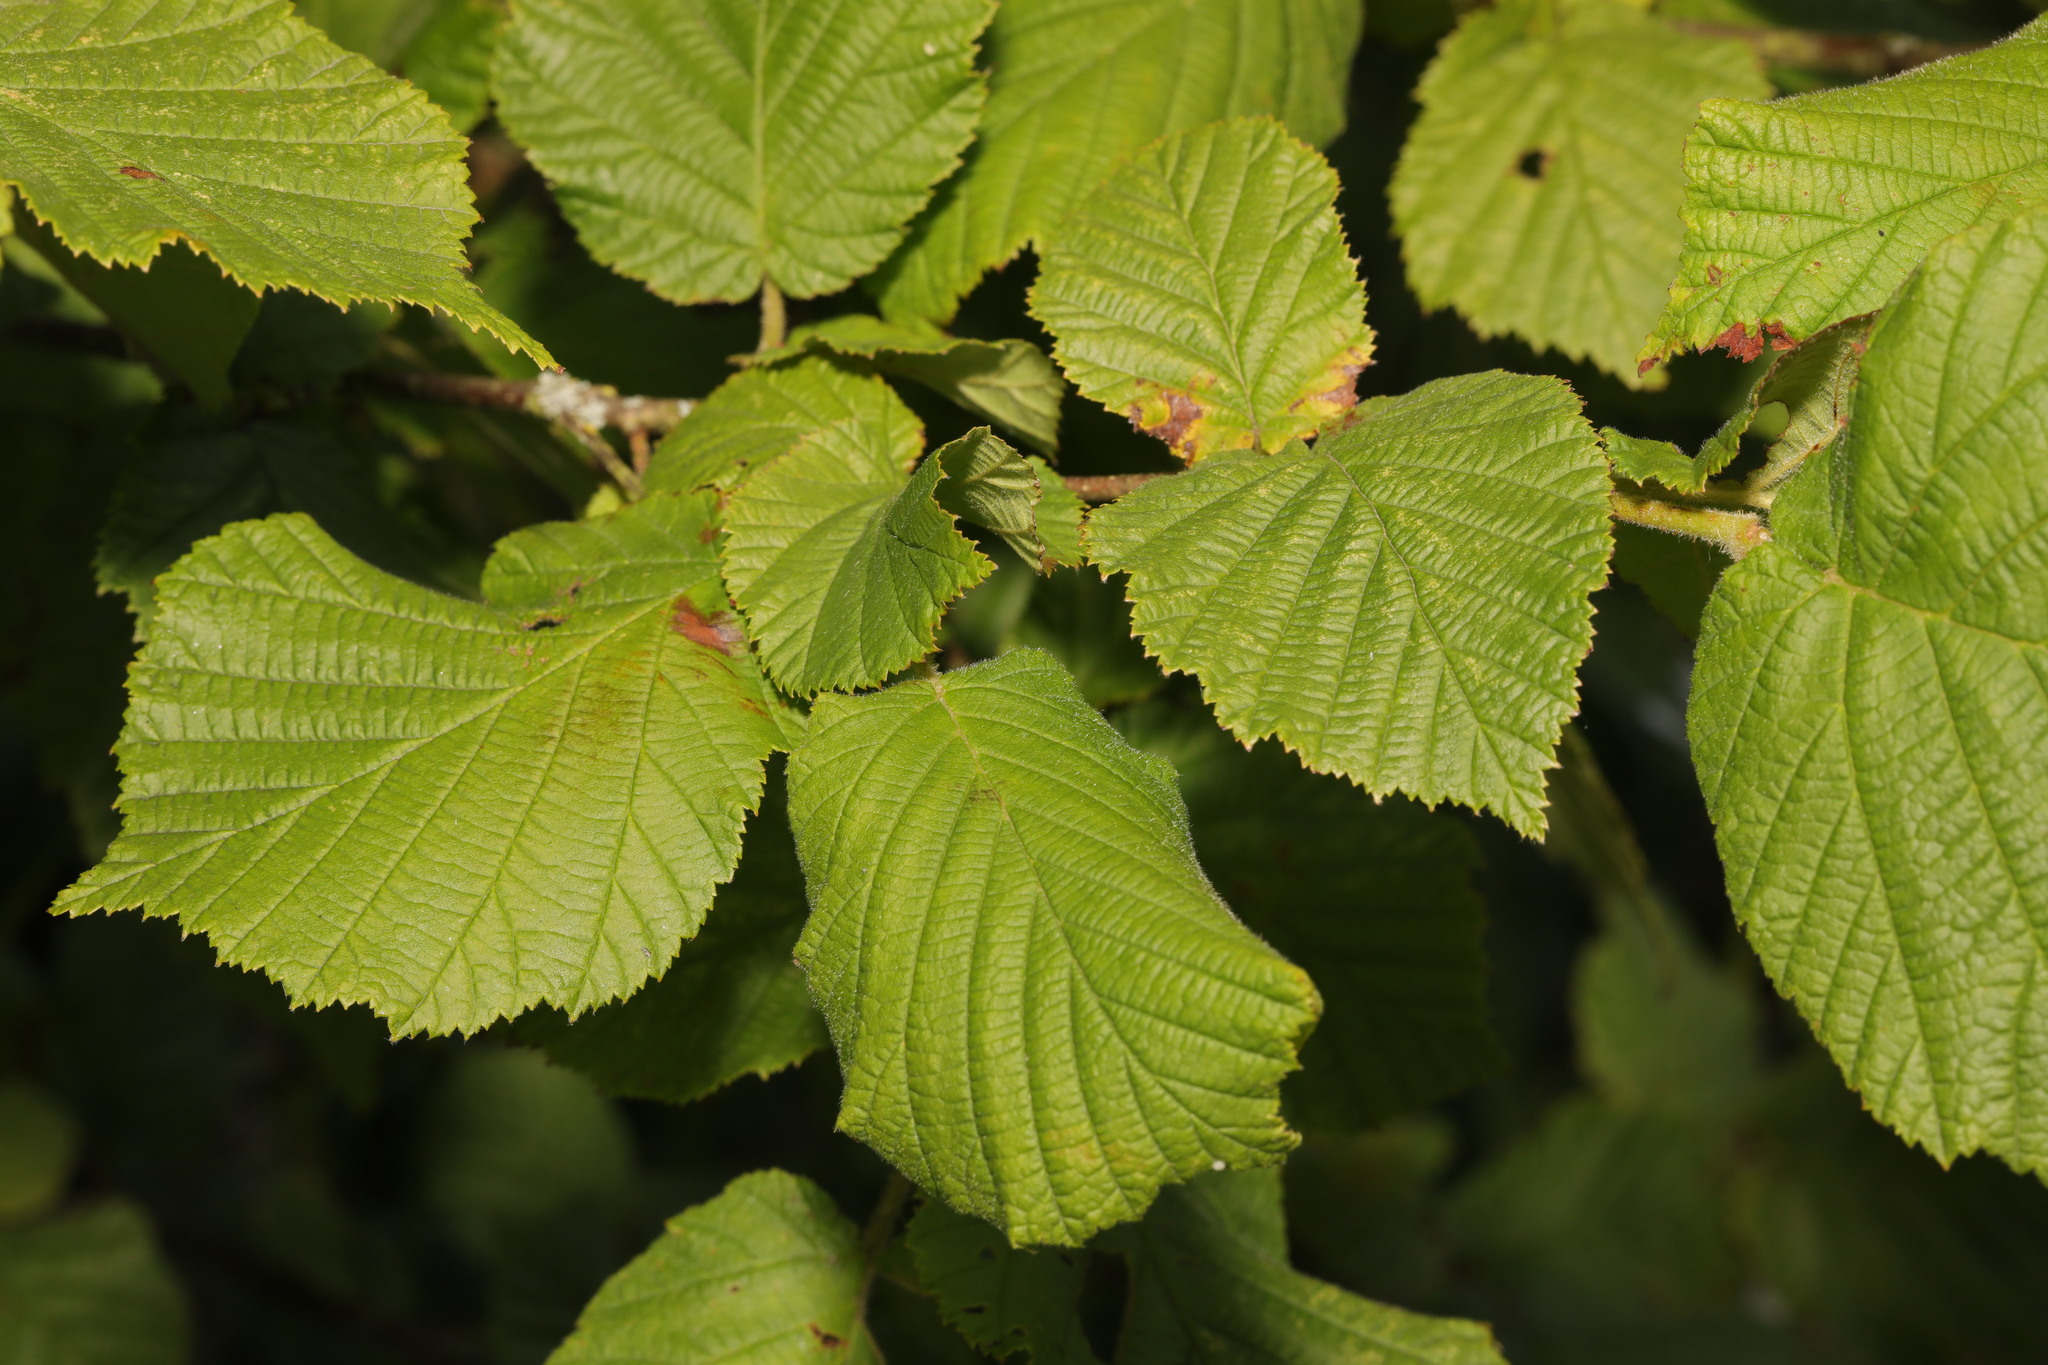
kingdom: Plantae
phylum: Tracheophyta
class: Magnoliopsida
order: Fagales
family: Betulaceae
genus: Corylus
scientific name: Corylus avellana
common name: European hazel
